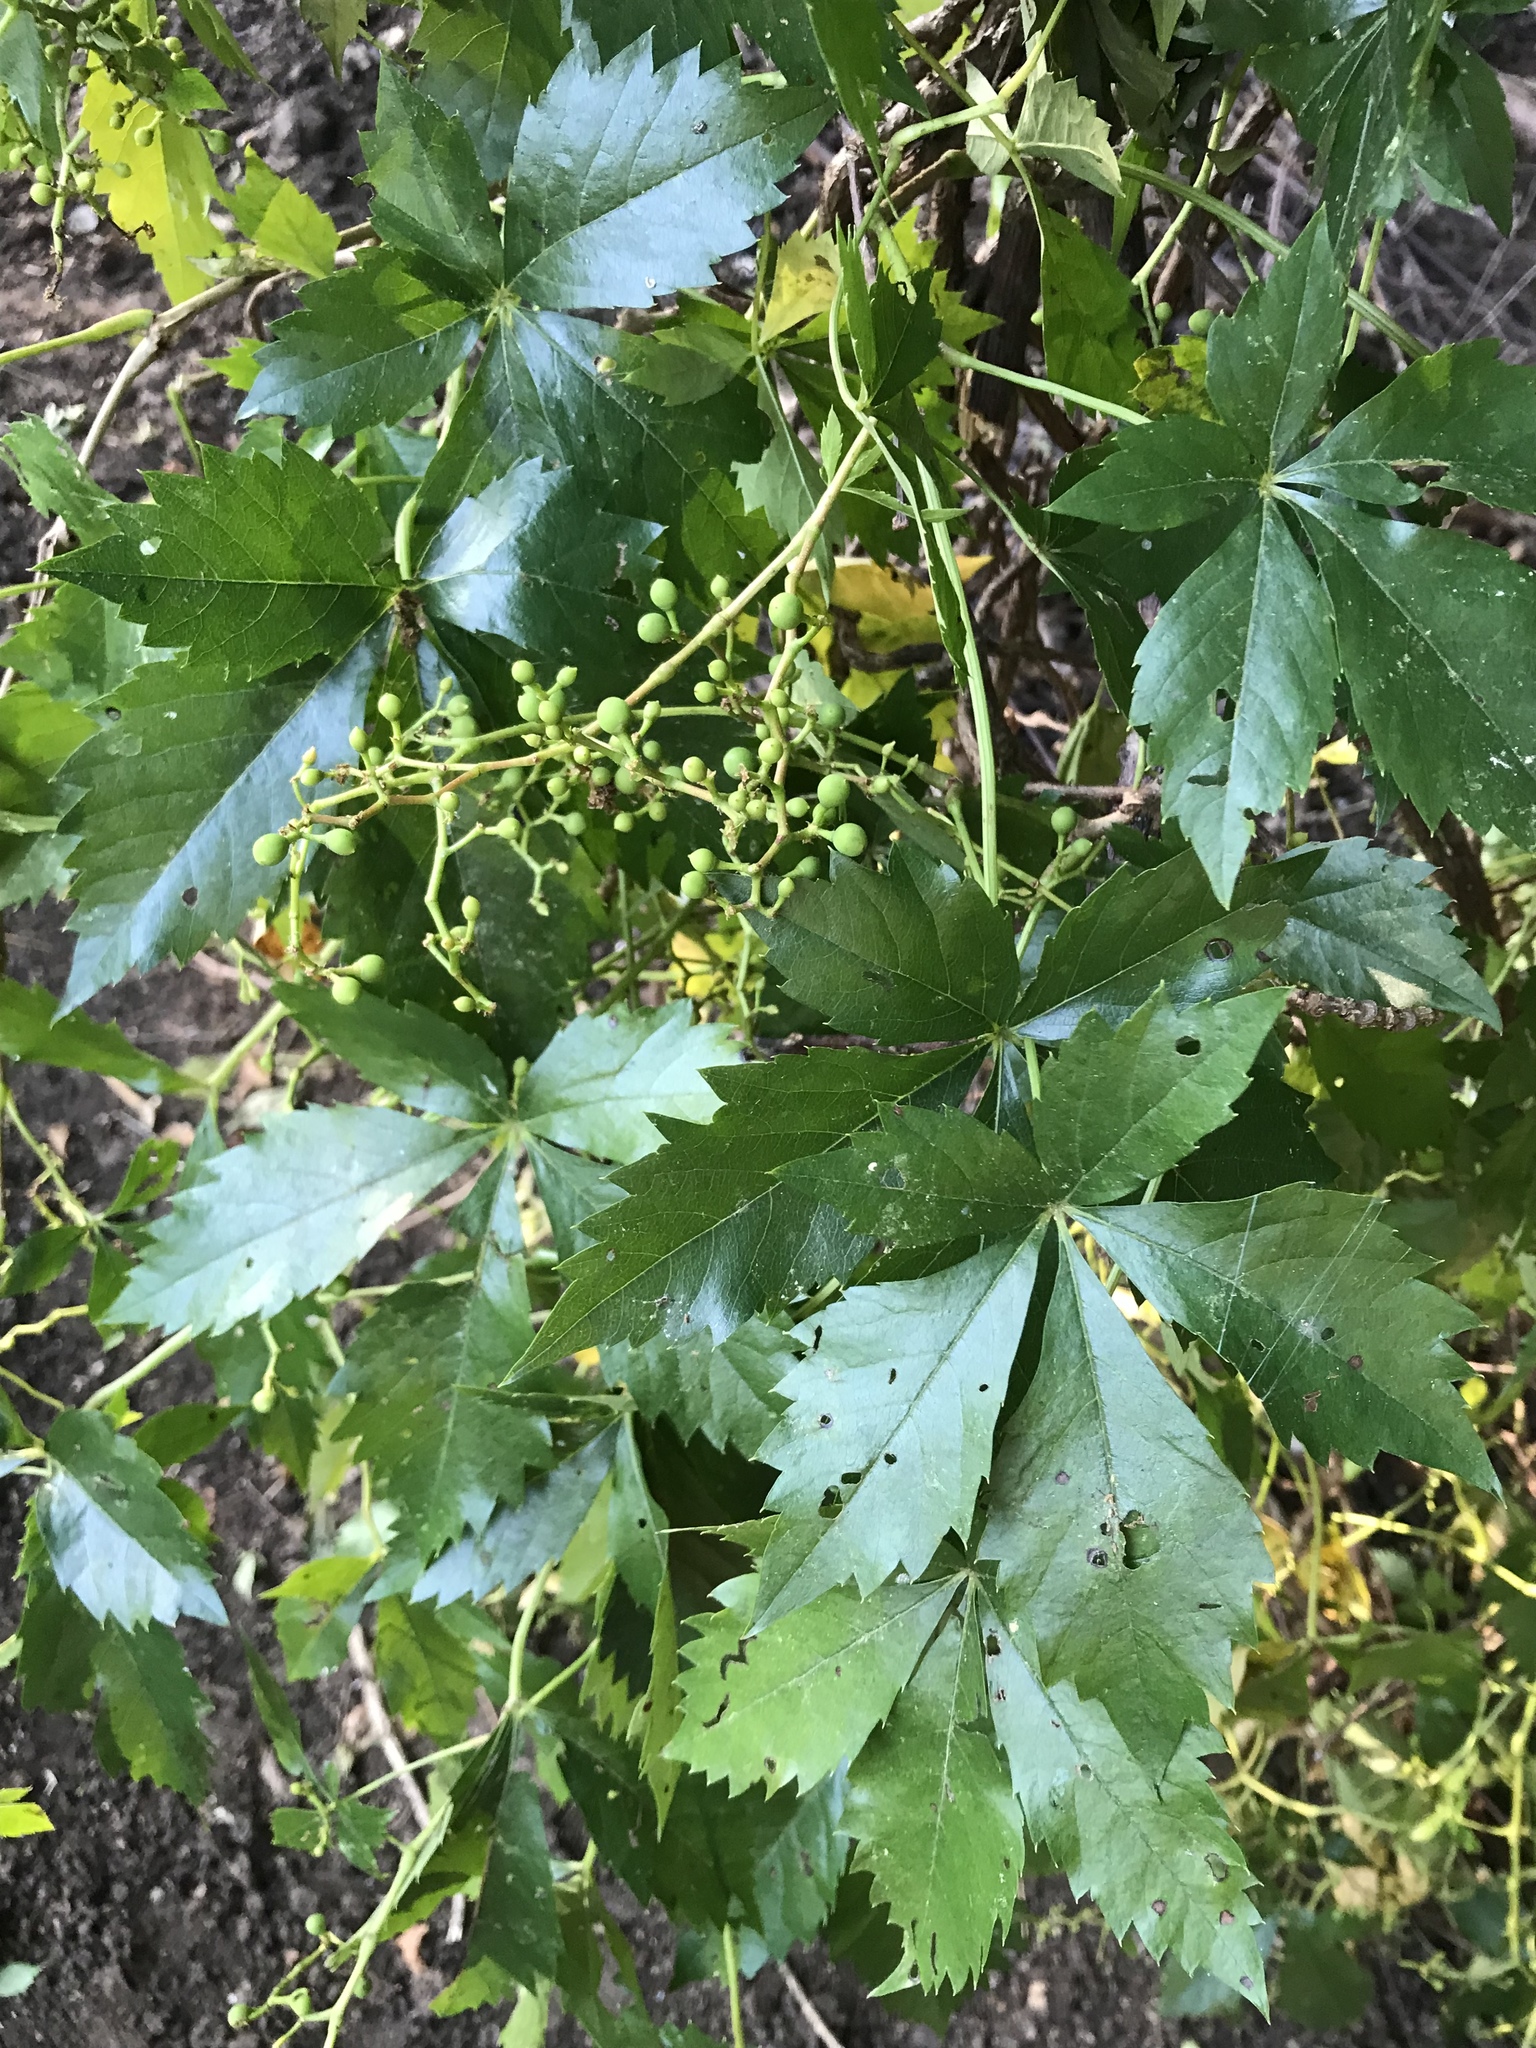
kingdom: Plantae
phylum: Tracheophyta
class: Magnoliopsida
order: Vitales
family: Vitaceae
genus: Parthenocissus
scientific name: Parthenocissus quinquefolia
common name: Virginia-creeper
